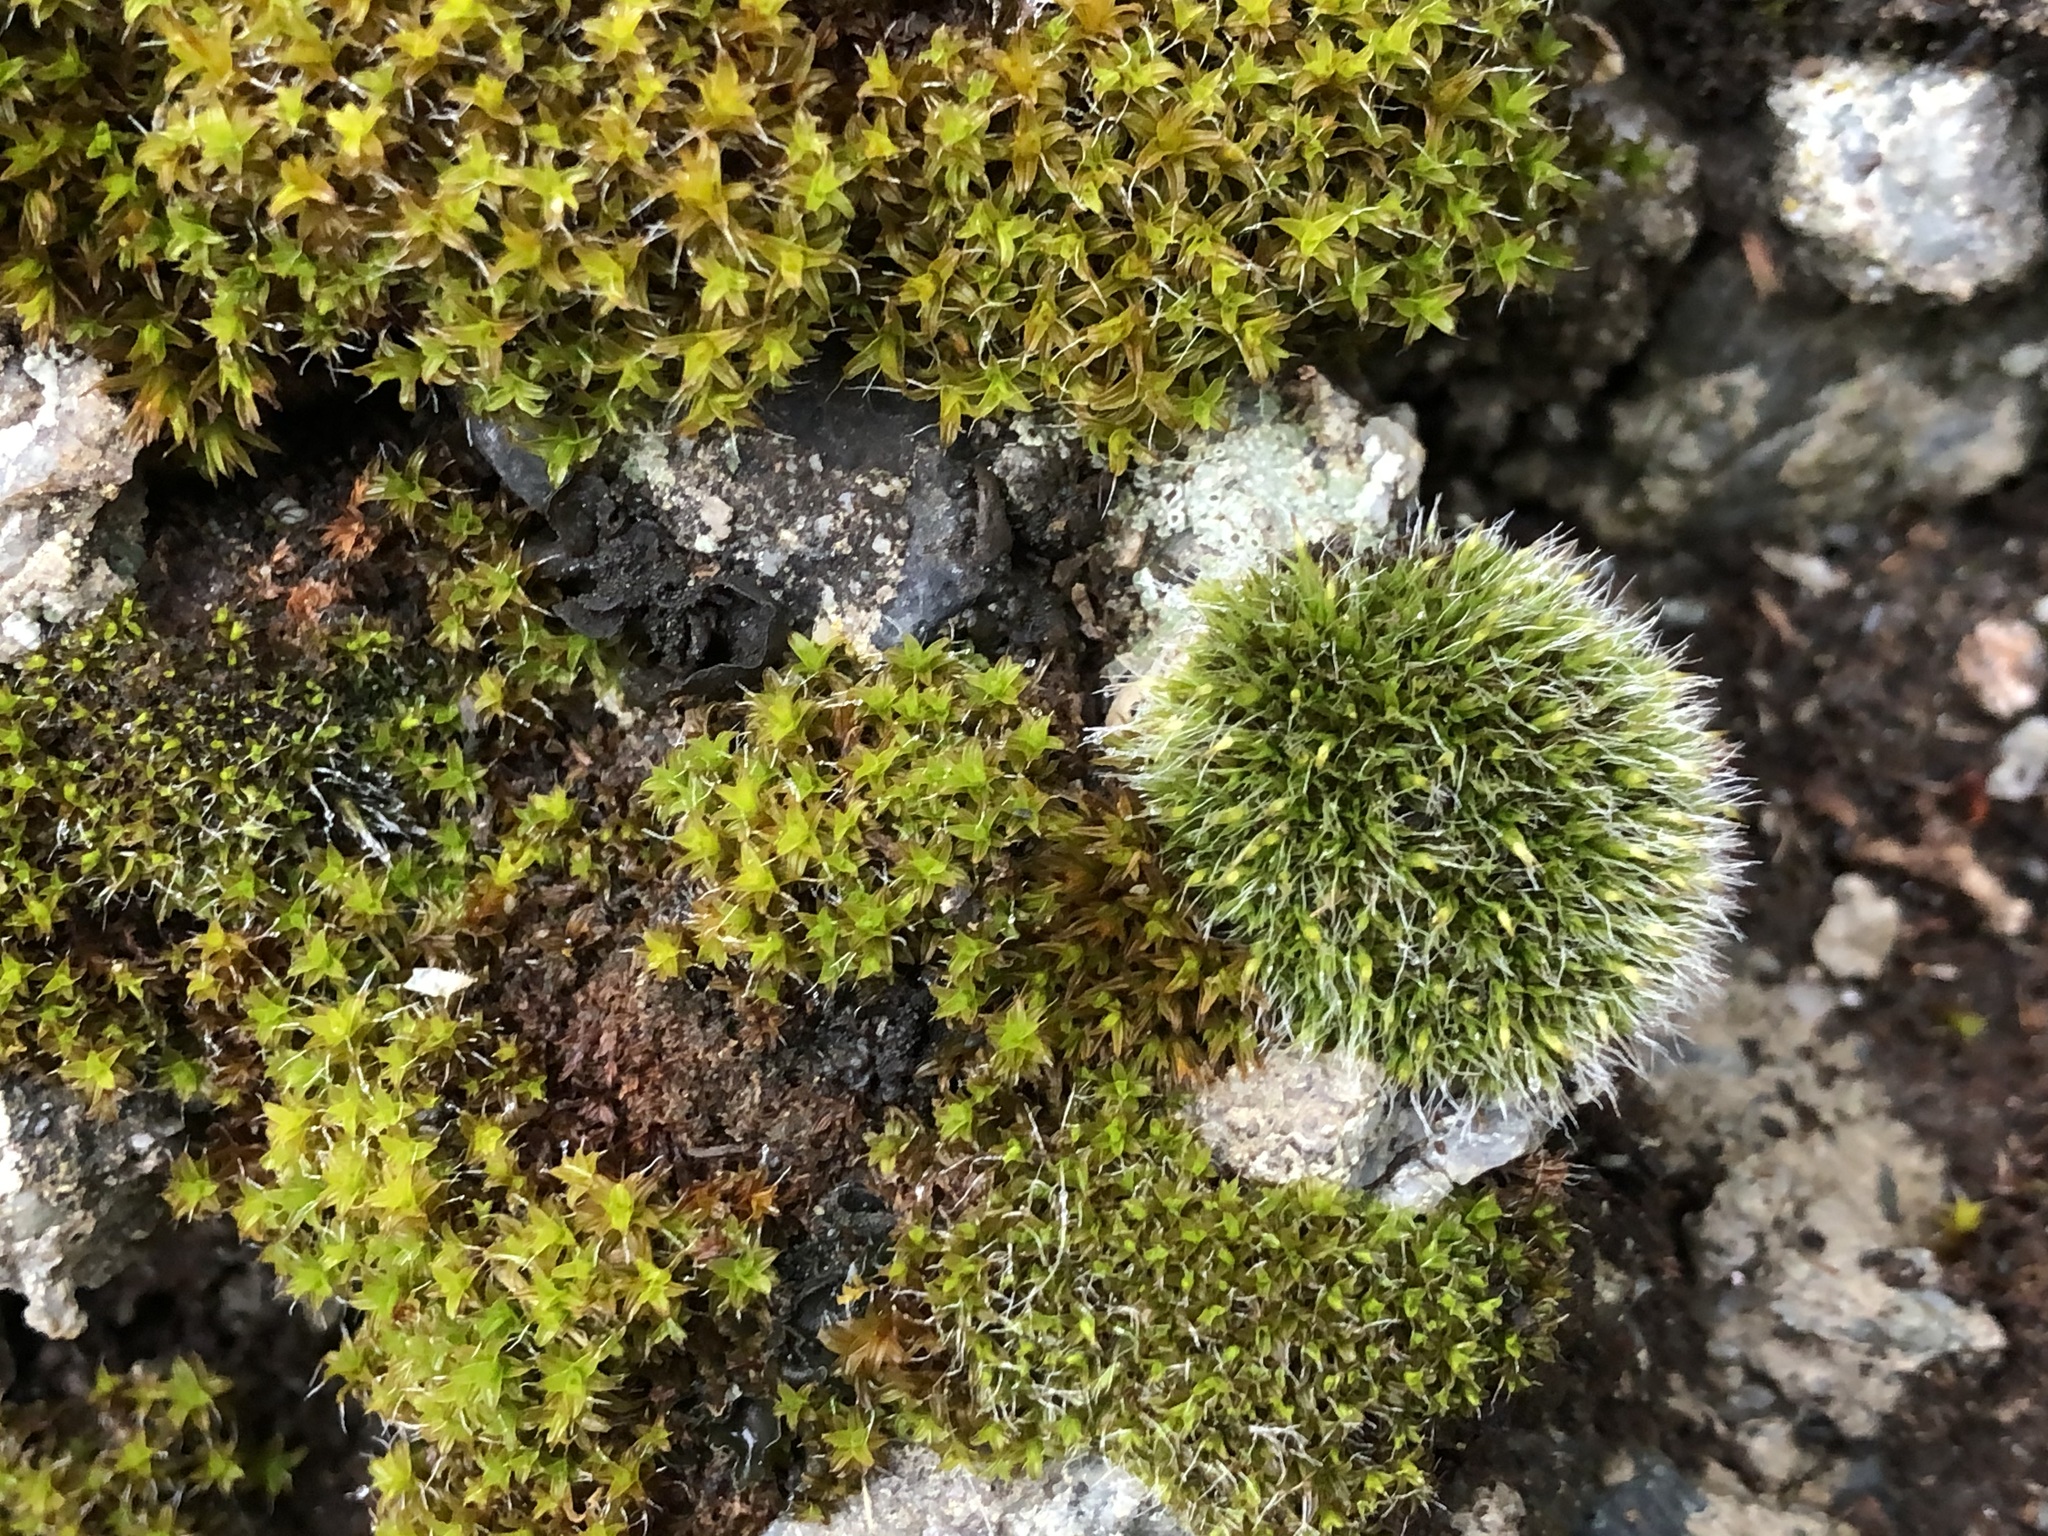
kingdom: Plantae
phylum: Bryophyta
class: Bryopsida
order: Grimmiales
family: Grimmiaceae
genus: Grimmia
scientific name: Grimmia pulvinata
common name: Grey-cushioned grimmia
